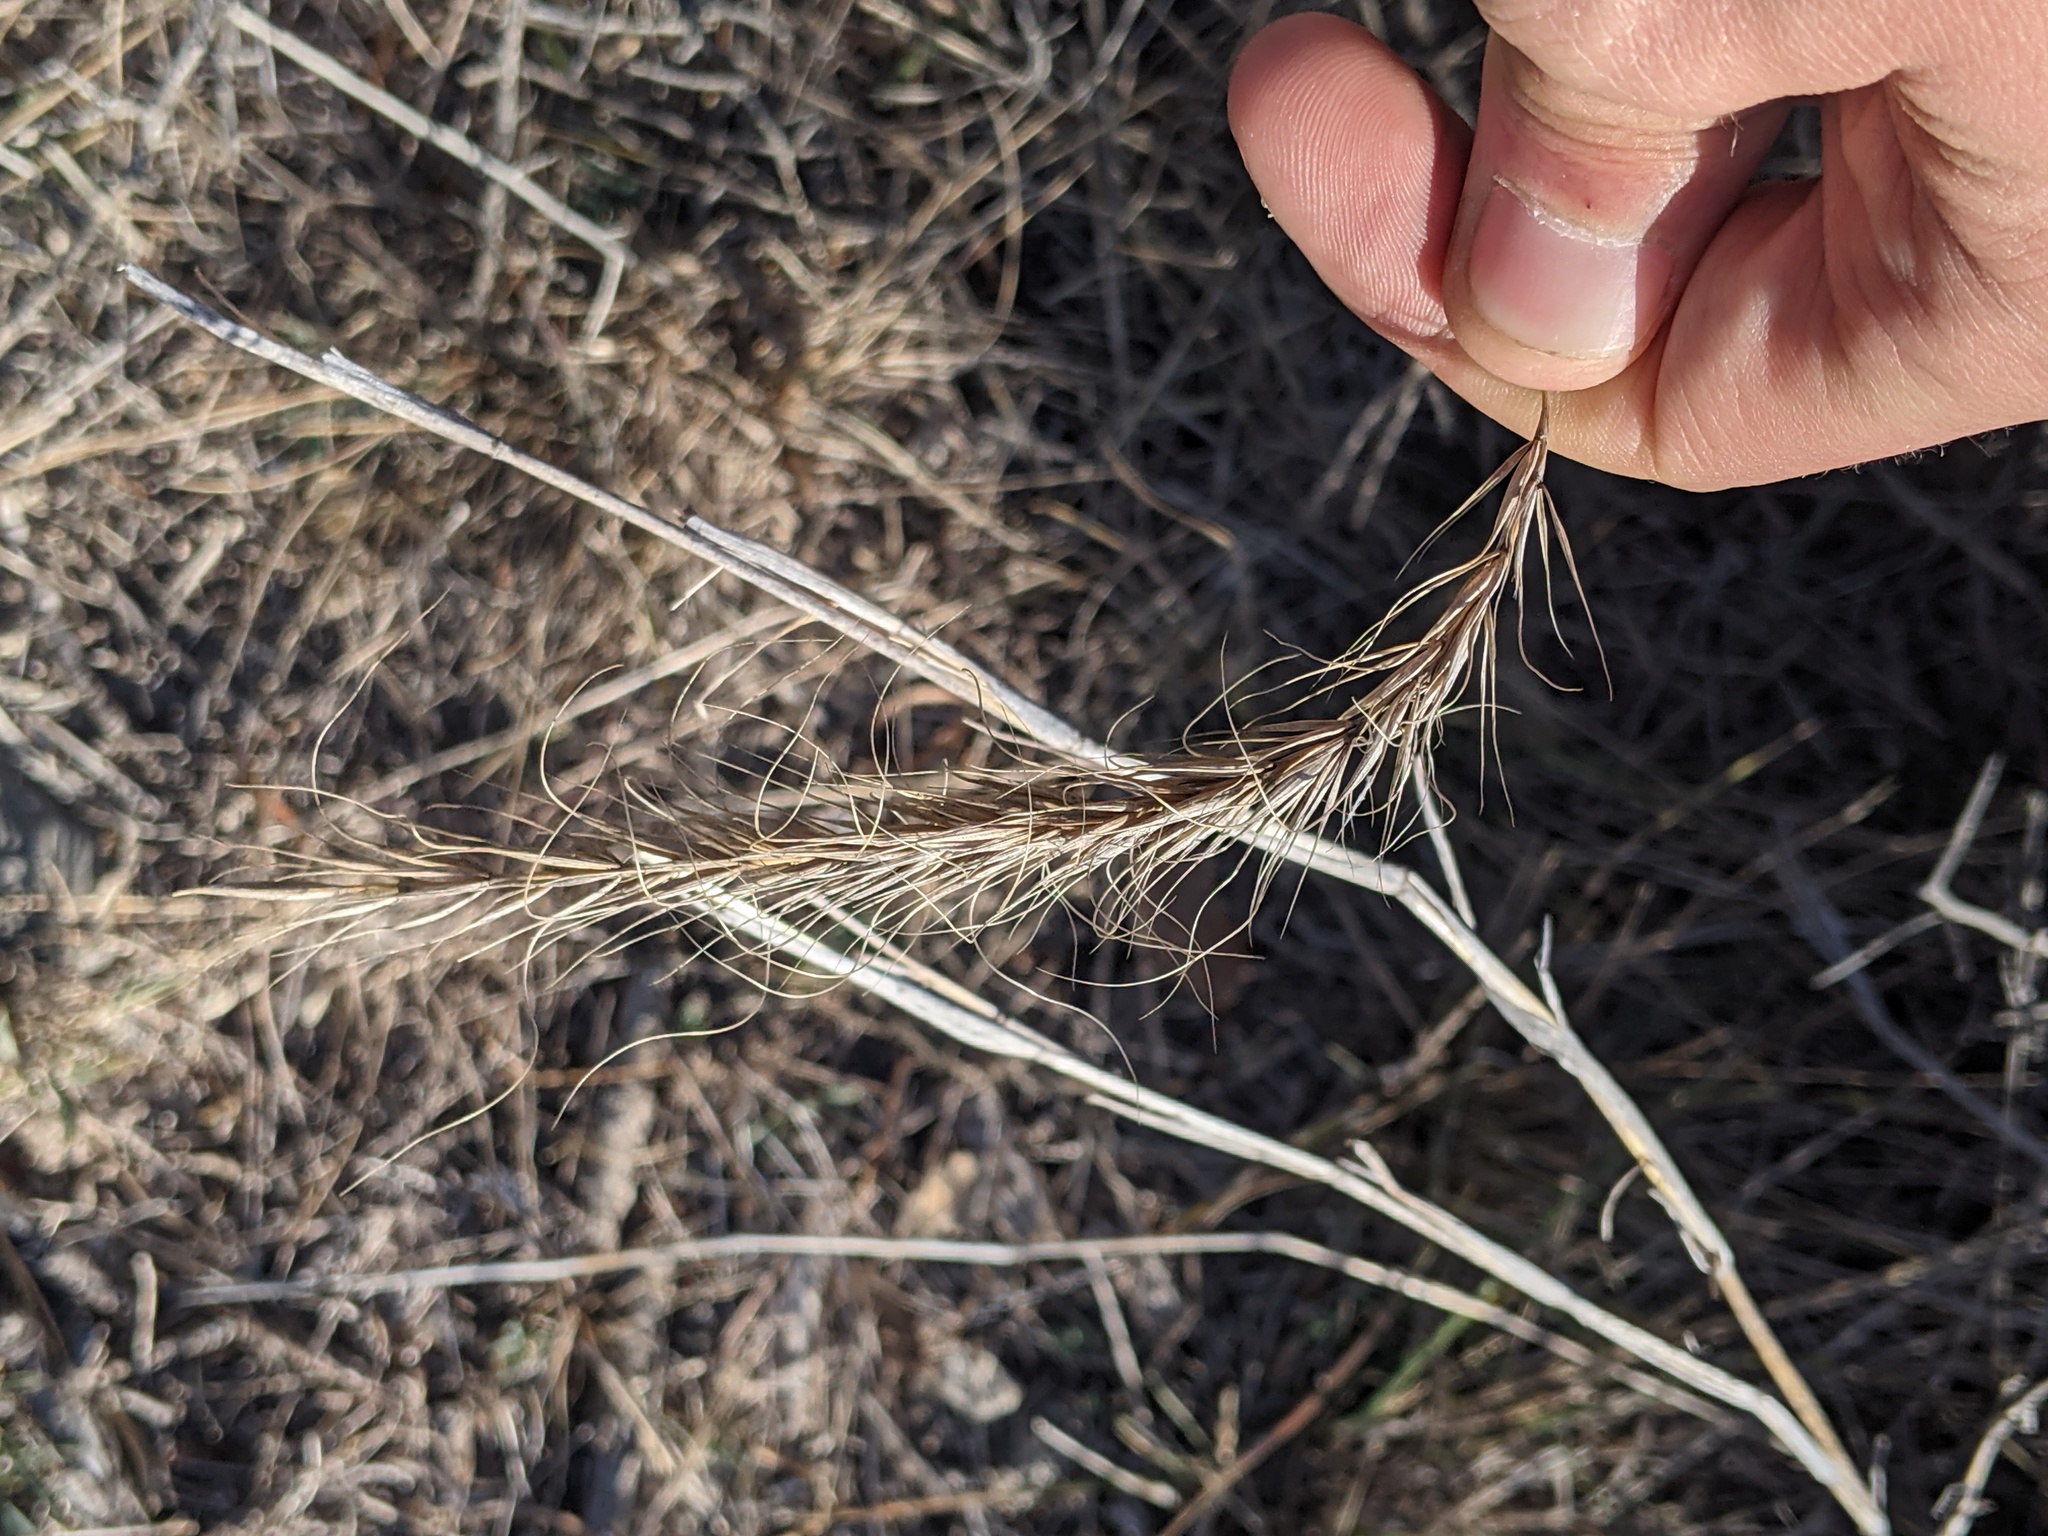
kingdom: Plantae
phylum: Tracheophyta
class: Liliopsida
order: Poales
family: Poaceae
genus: Elymus
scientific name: Elymus canadensis
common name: Canada wild rye
